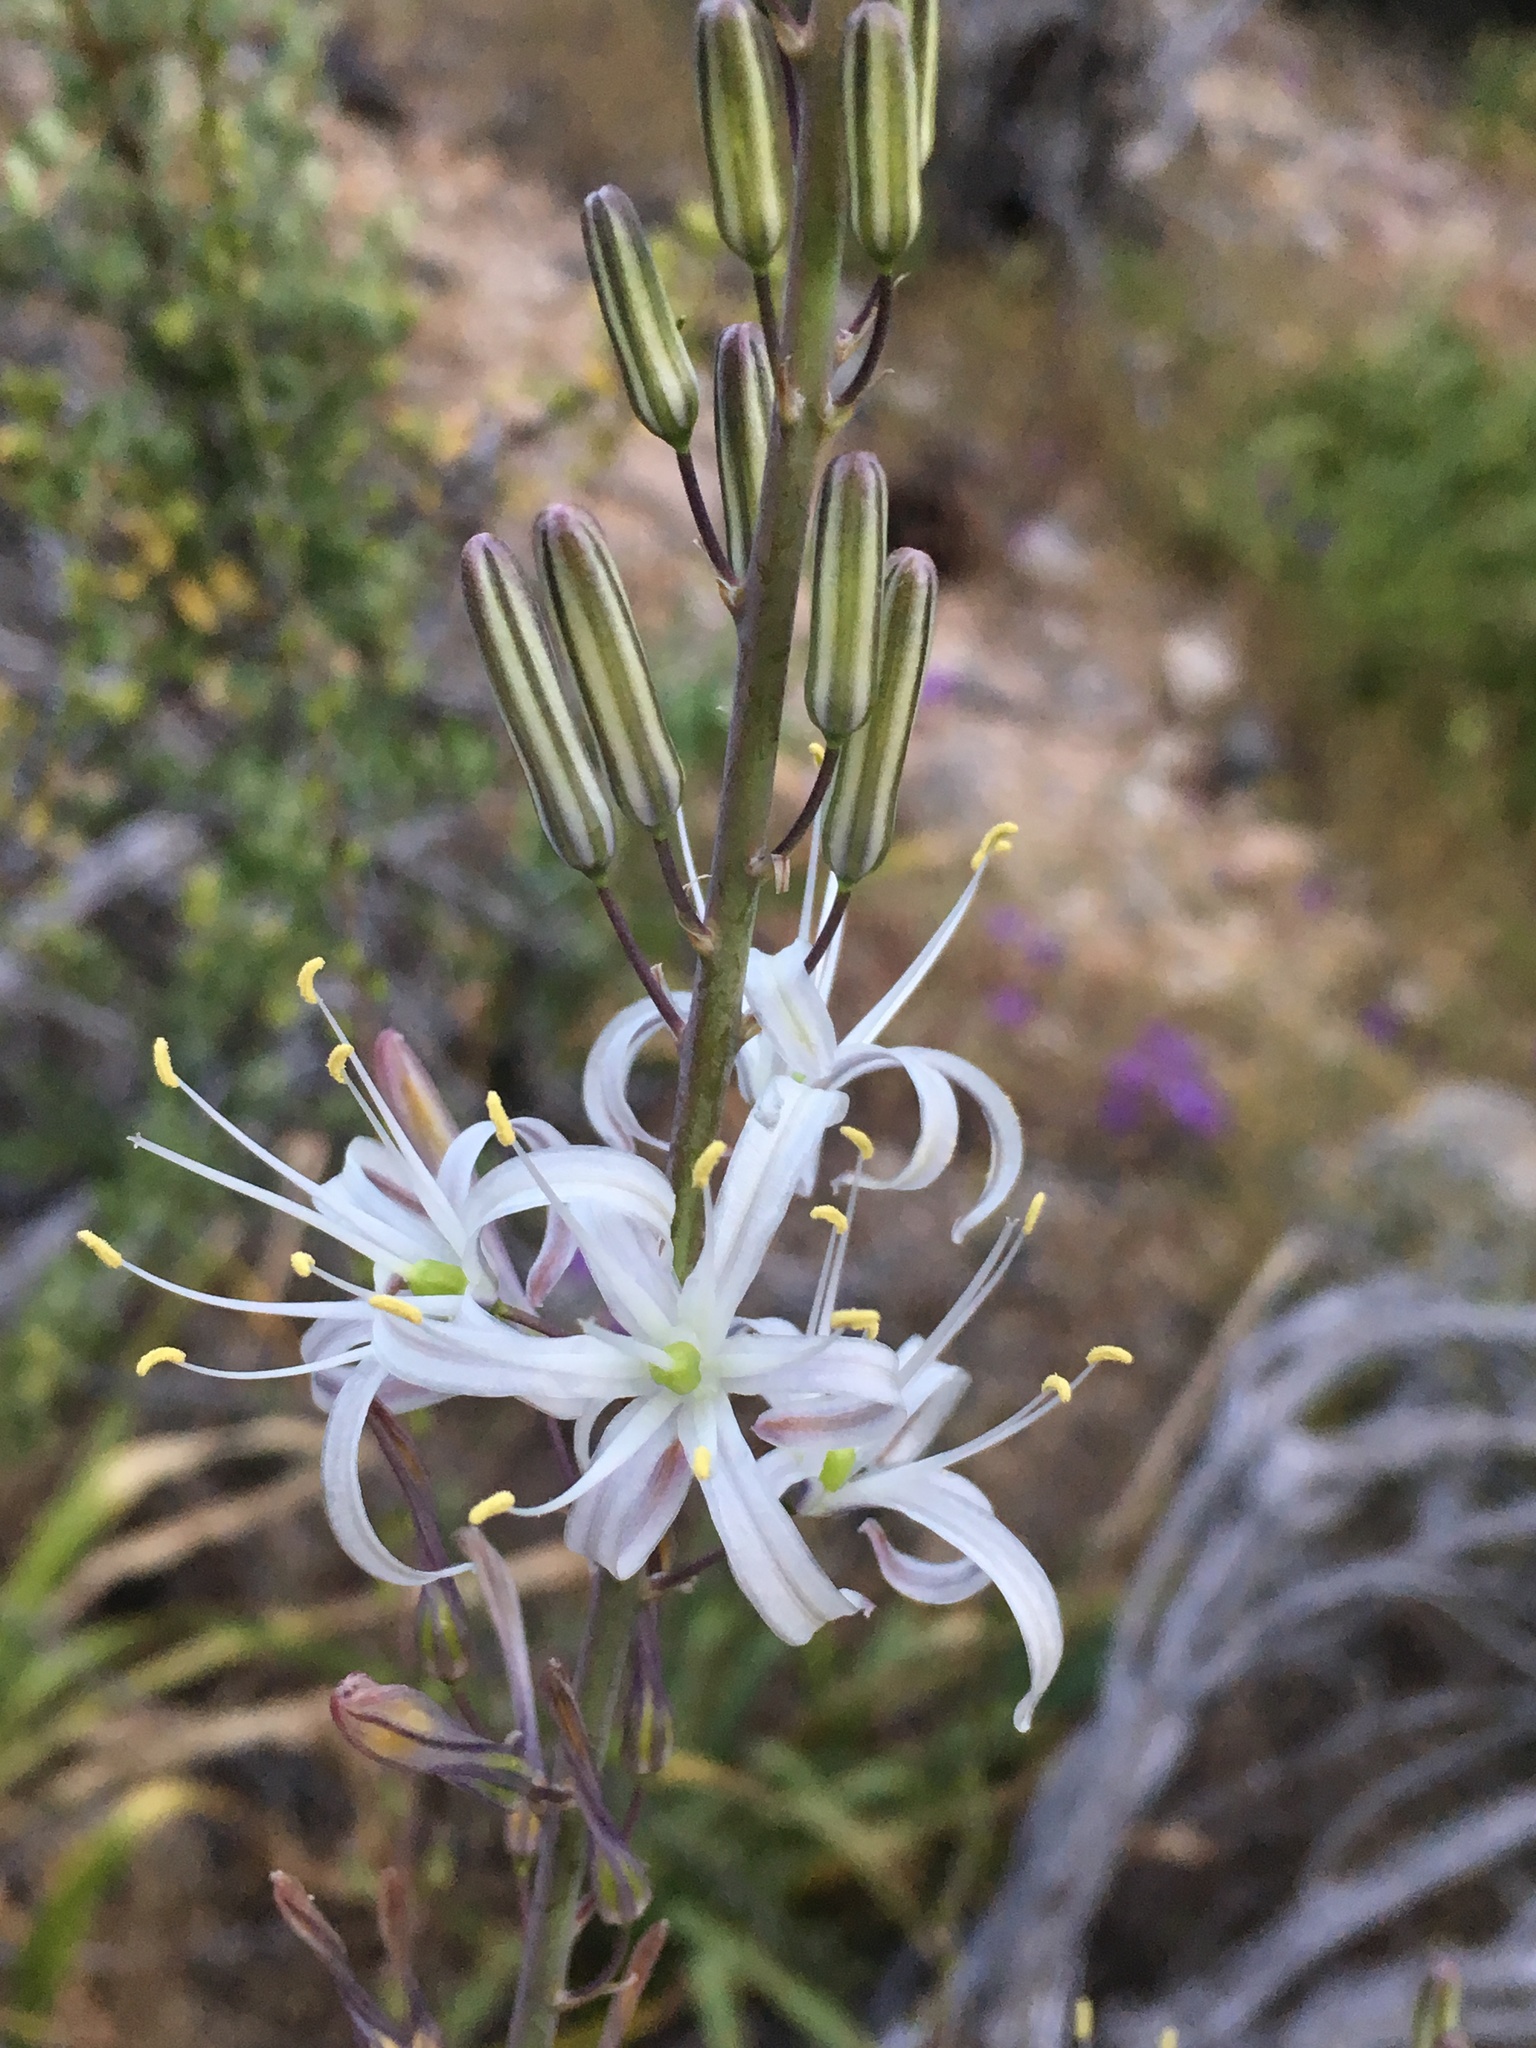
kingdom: Plantae
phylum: Tracheophyta
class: Liliopsida
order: Asparagales
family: Asparagaceae
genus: Chlorogalum
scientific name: Chlorogalum pomeridianum
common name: Amole
